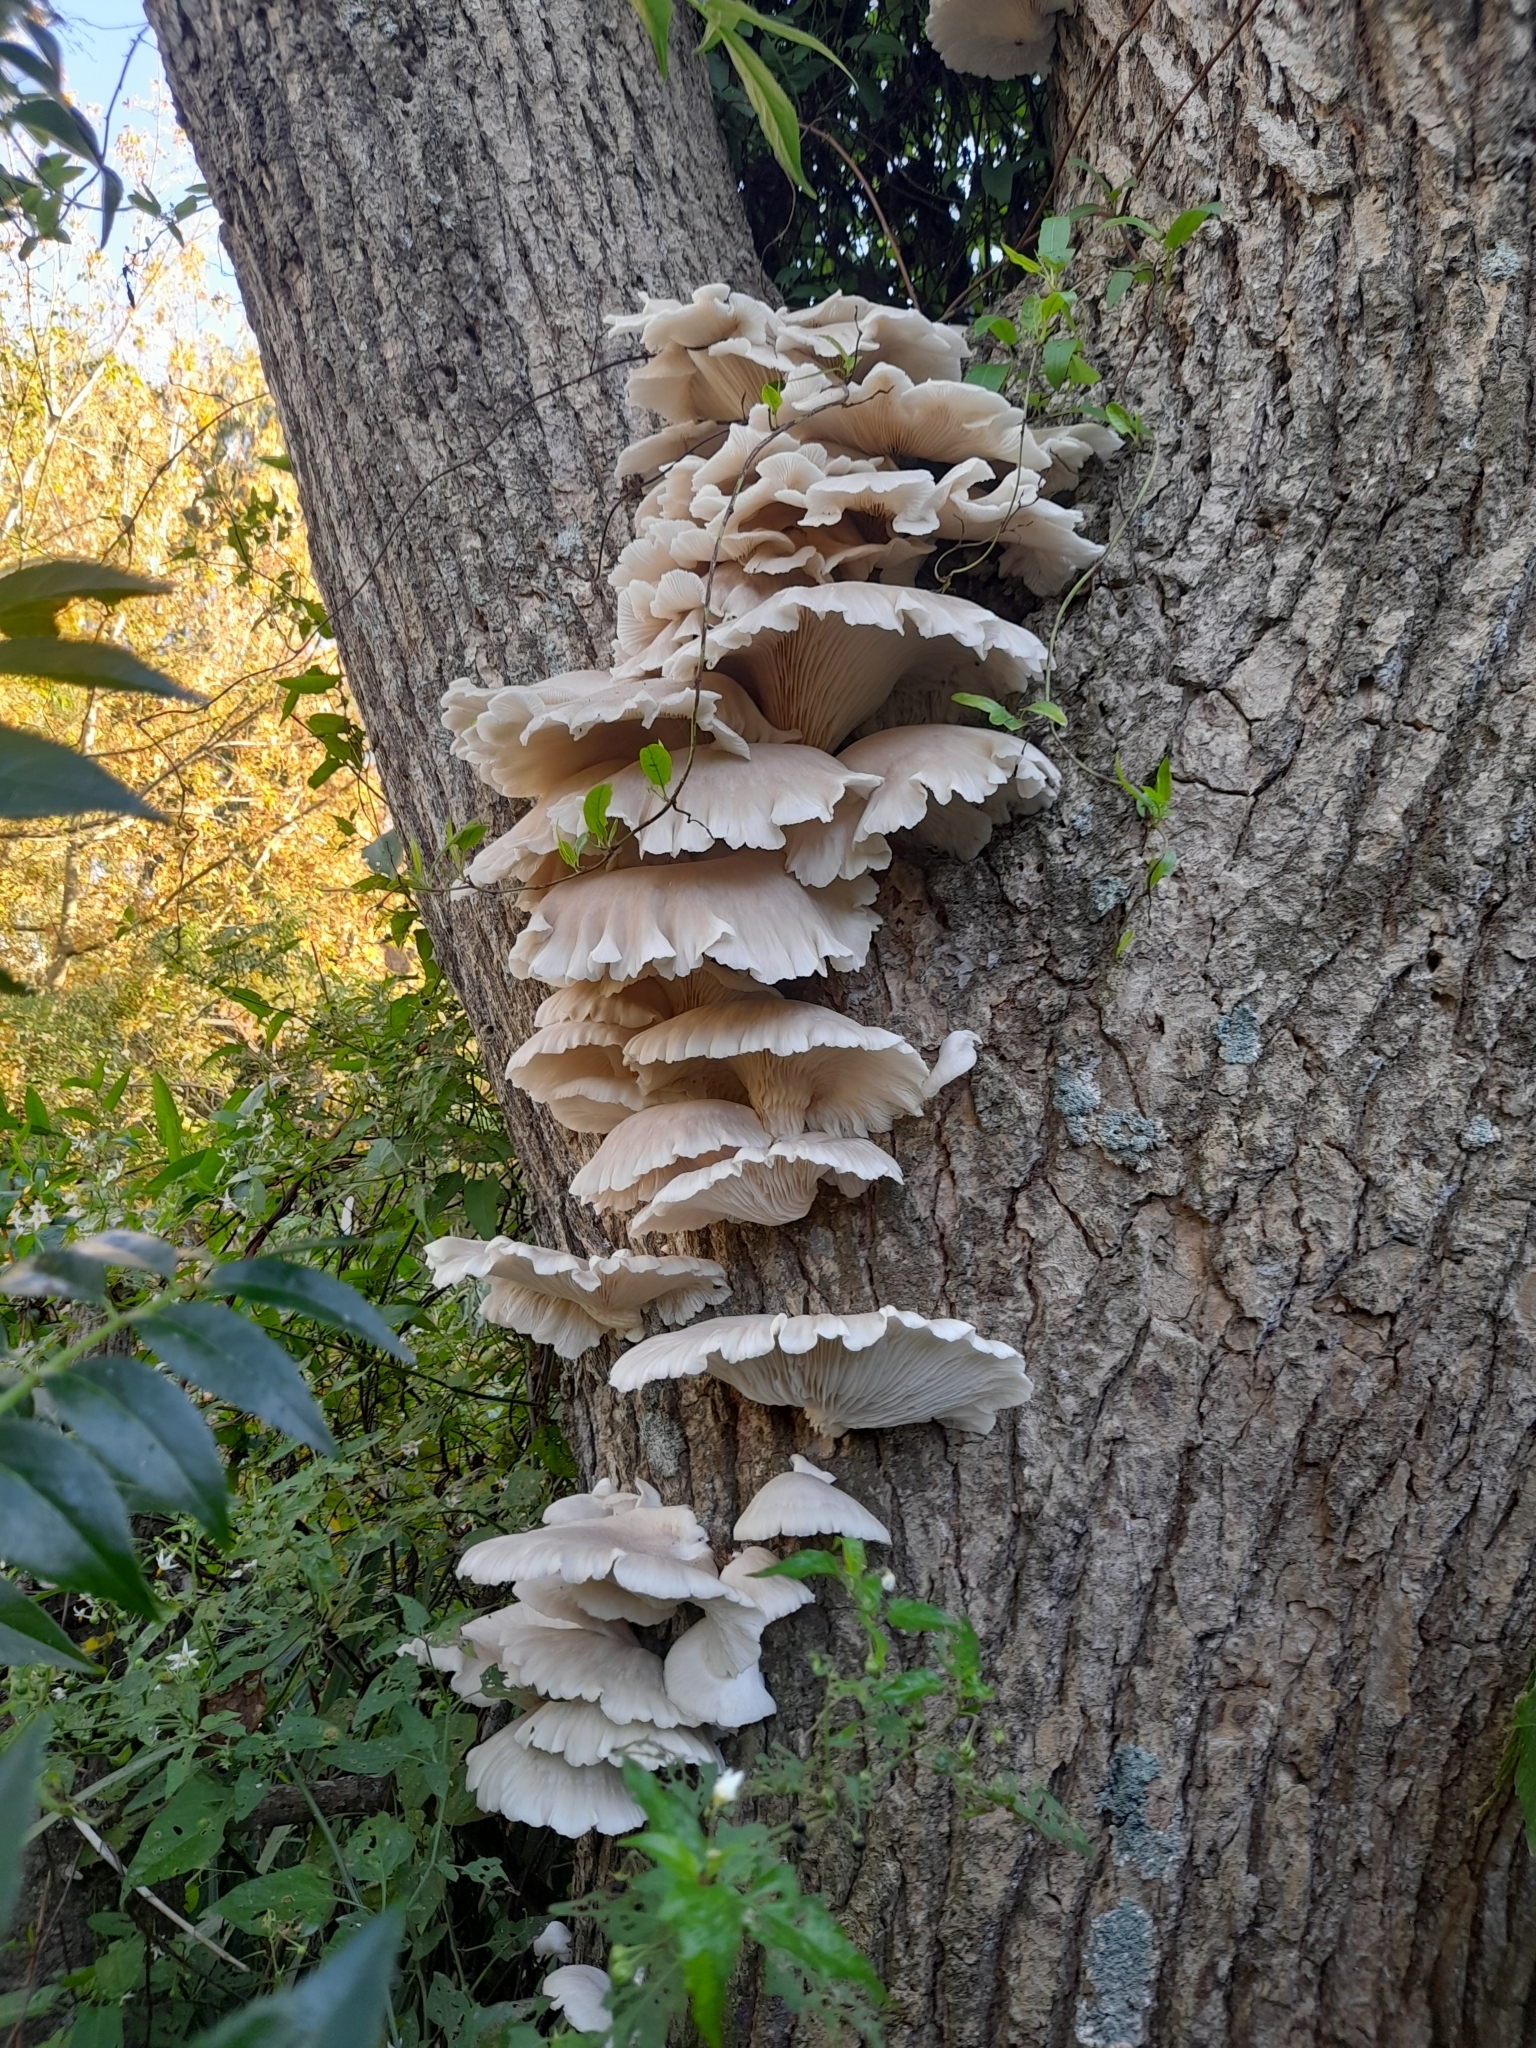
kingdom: Fungi
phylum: Basidiomycota
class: Agaricomycetes
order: Agaricales
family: Pleurotaceae
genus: Pleurotus
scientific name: Pleurotus pulmonarius
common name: Pale oyster
